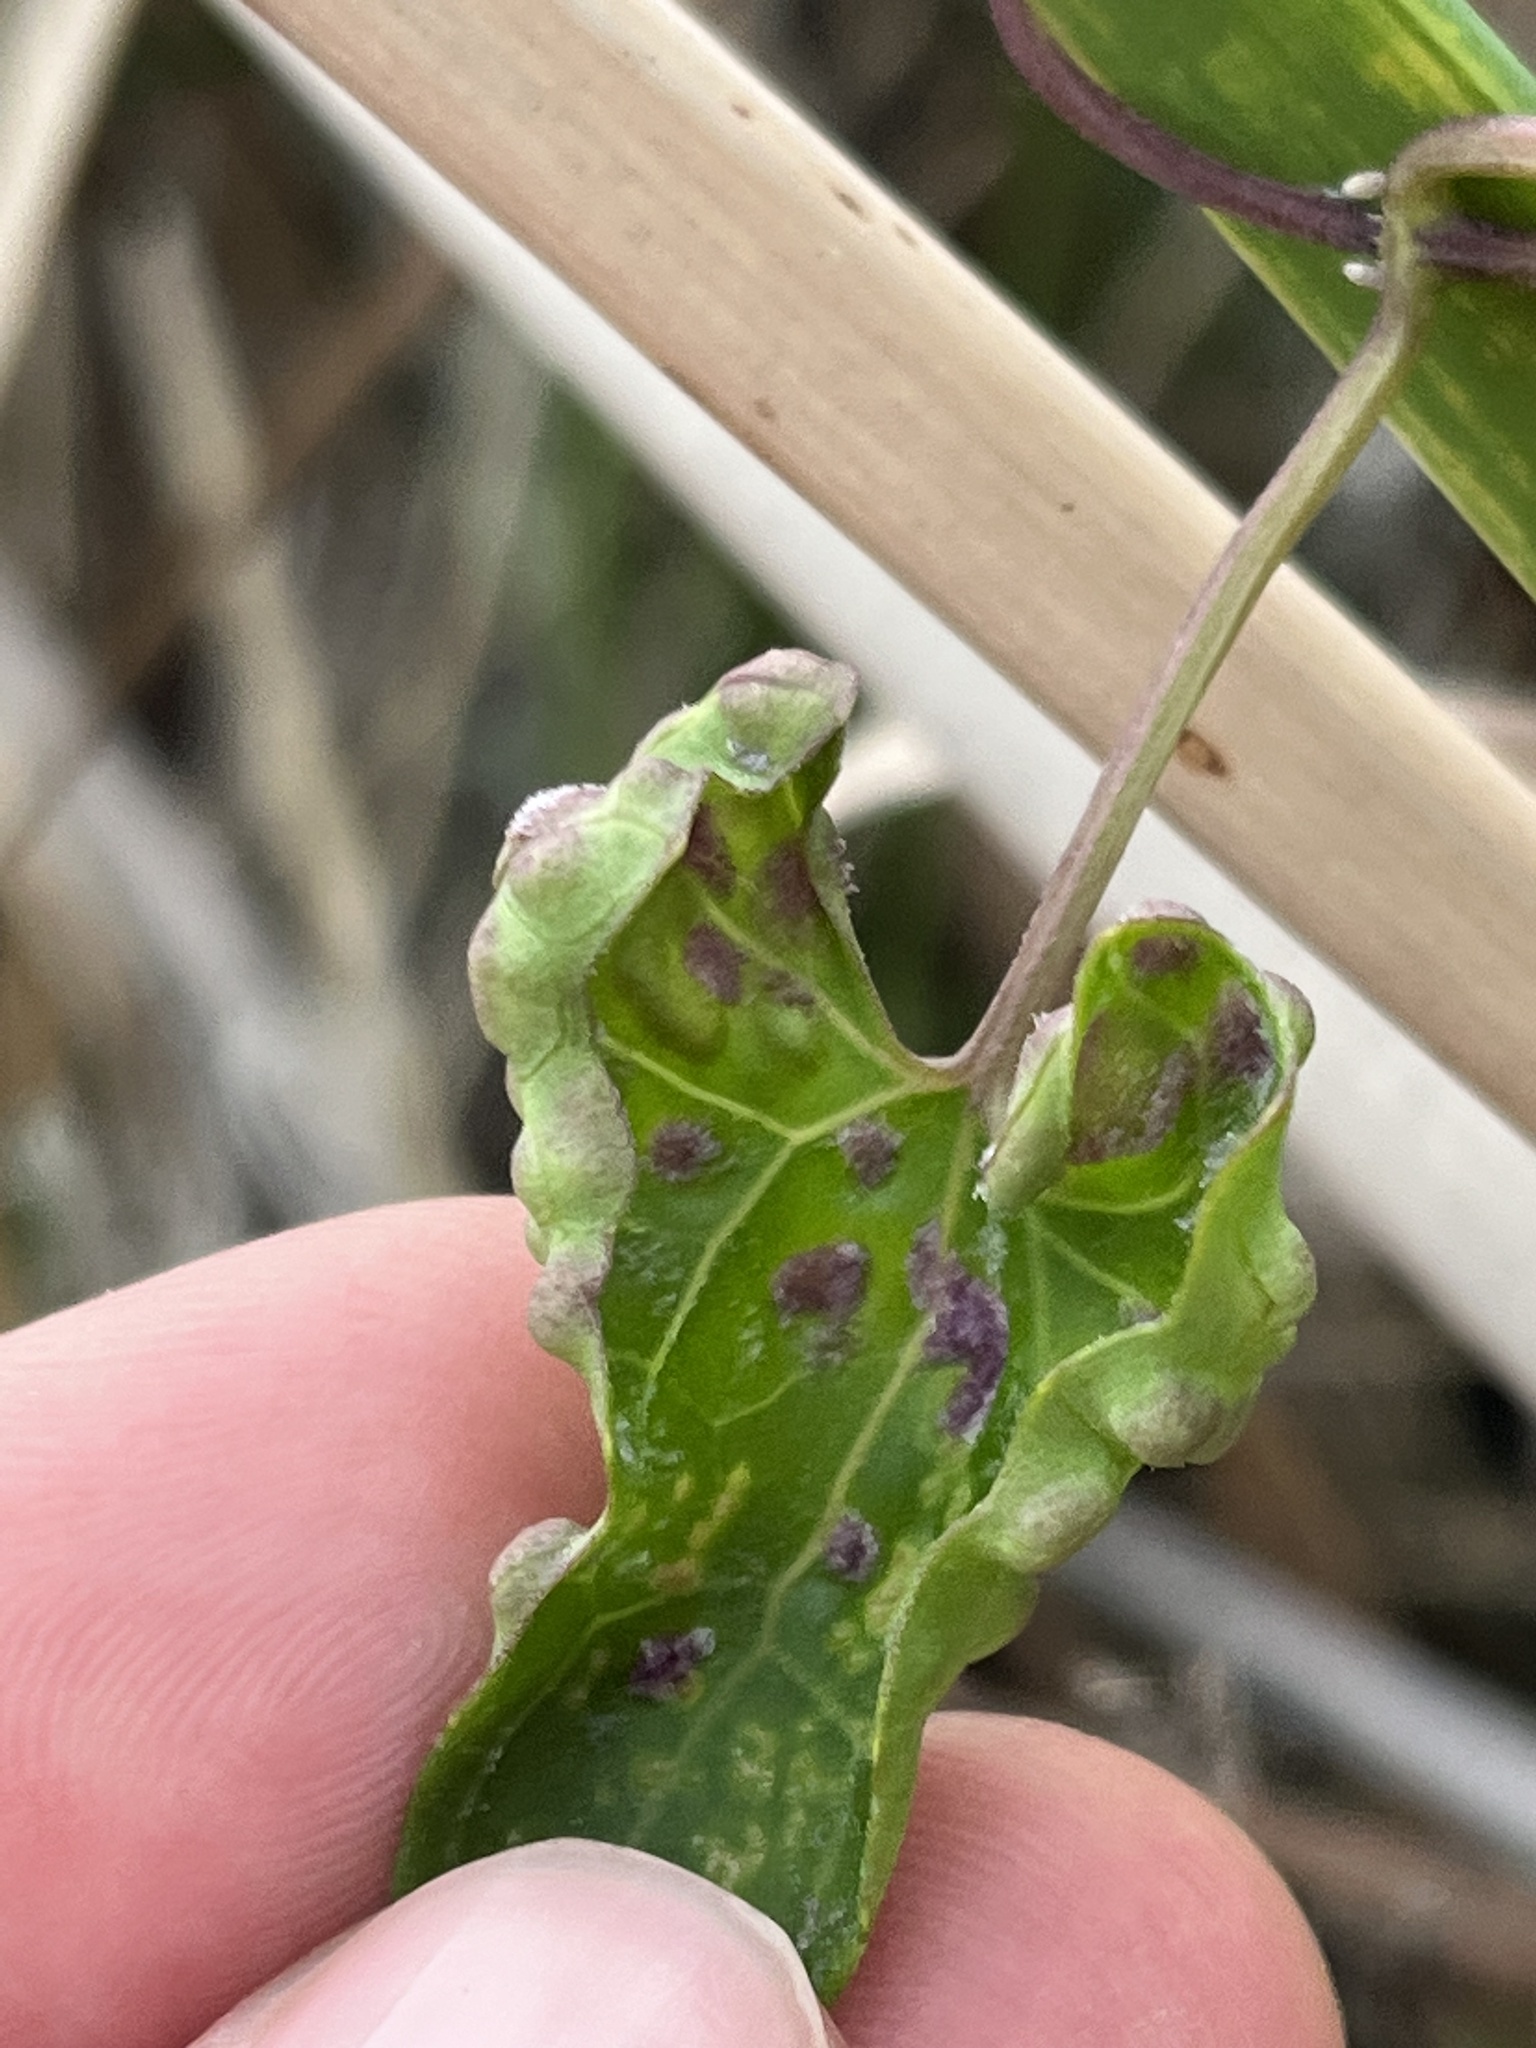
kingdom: Fungi
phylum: Basidiomycota
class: Pucciniomycetes
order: Pucciniales
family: Pucciniaceae
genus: Puccinia
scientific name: Puccinia spegazzinii
